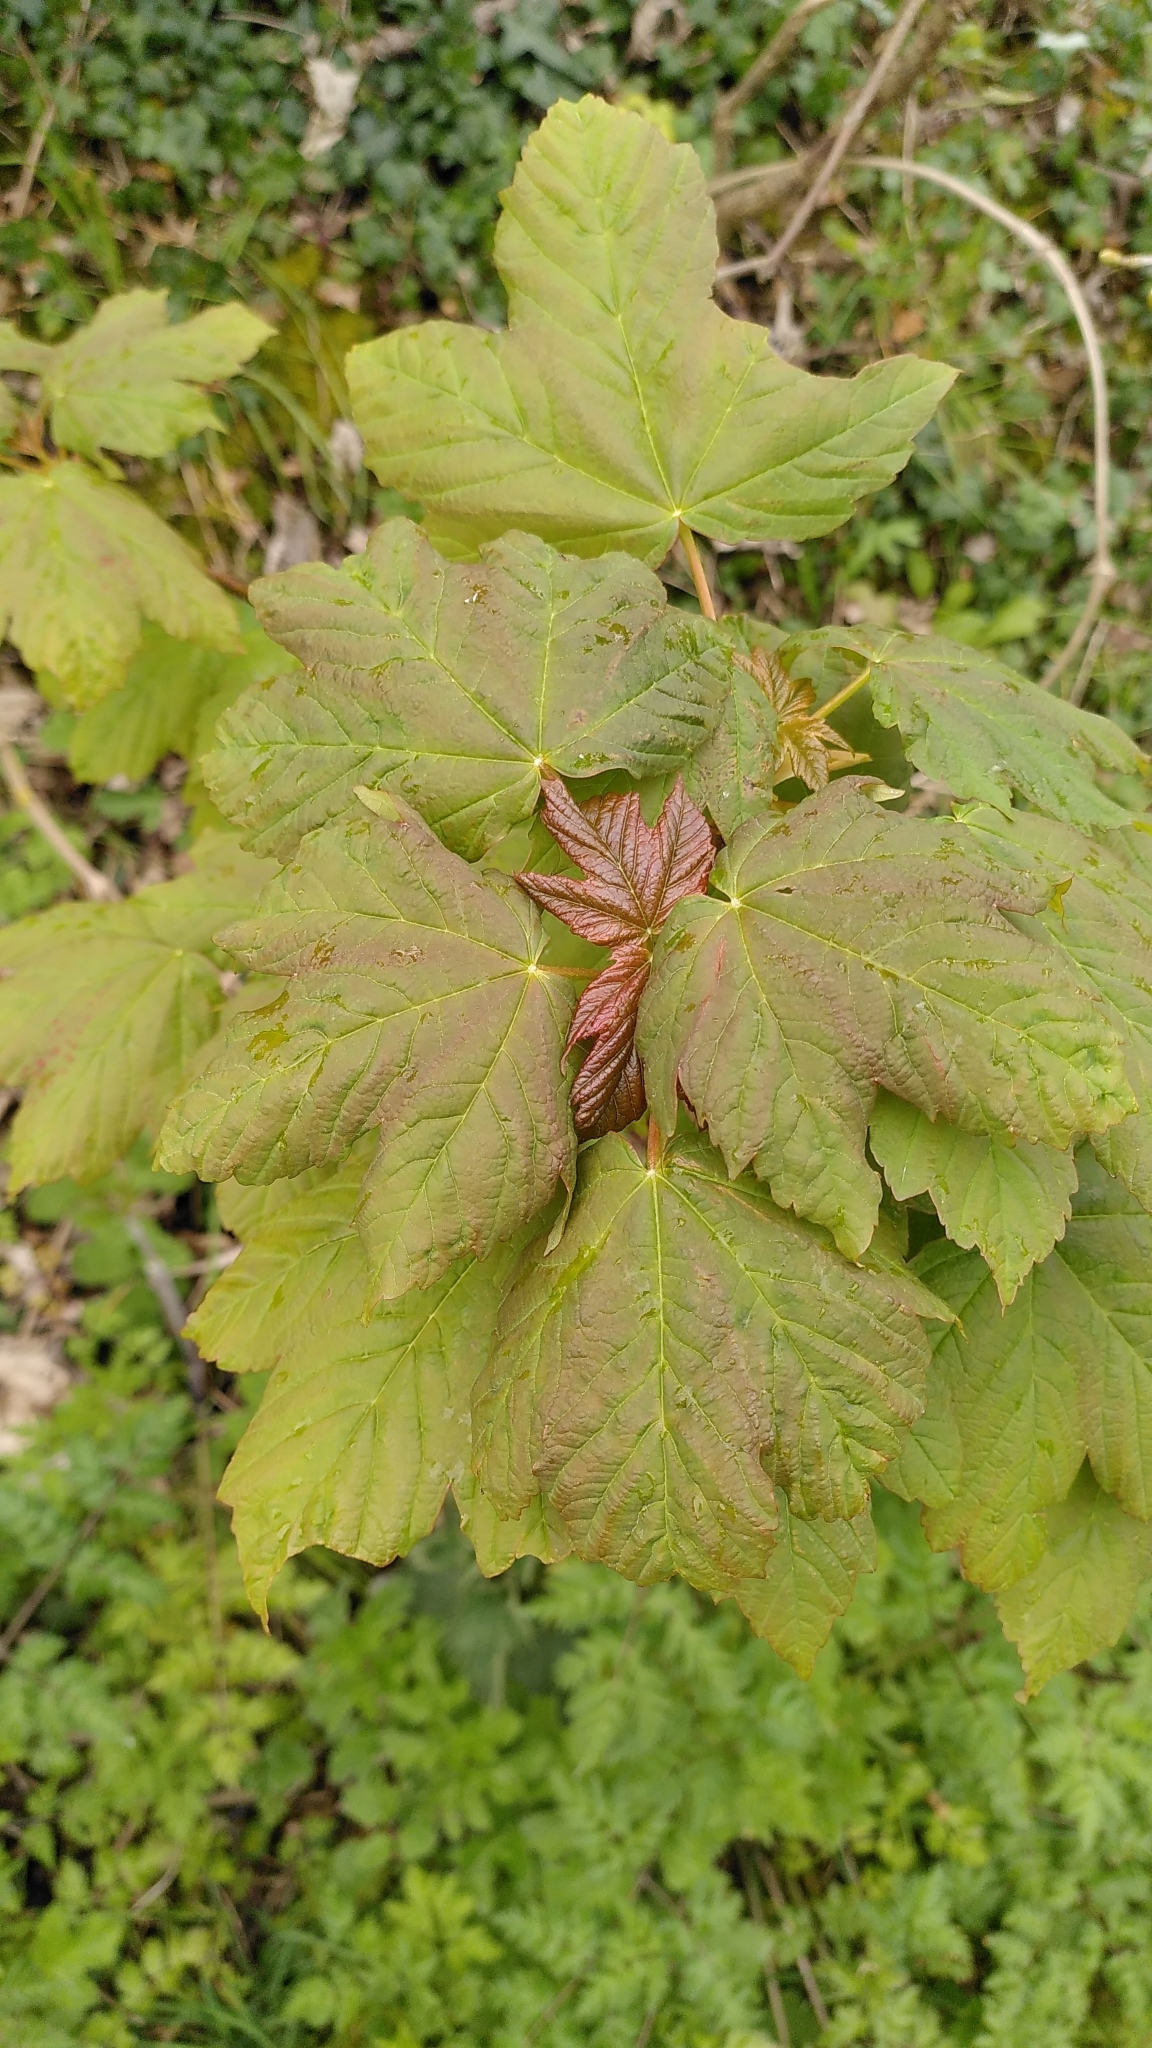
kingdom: Plantae
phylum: Tracheophyta
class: Magnoliopsida
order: Sapindales
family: Sapindaceae
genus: Acer
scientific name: Acer pseudoplatanus
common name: Sycamore
